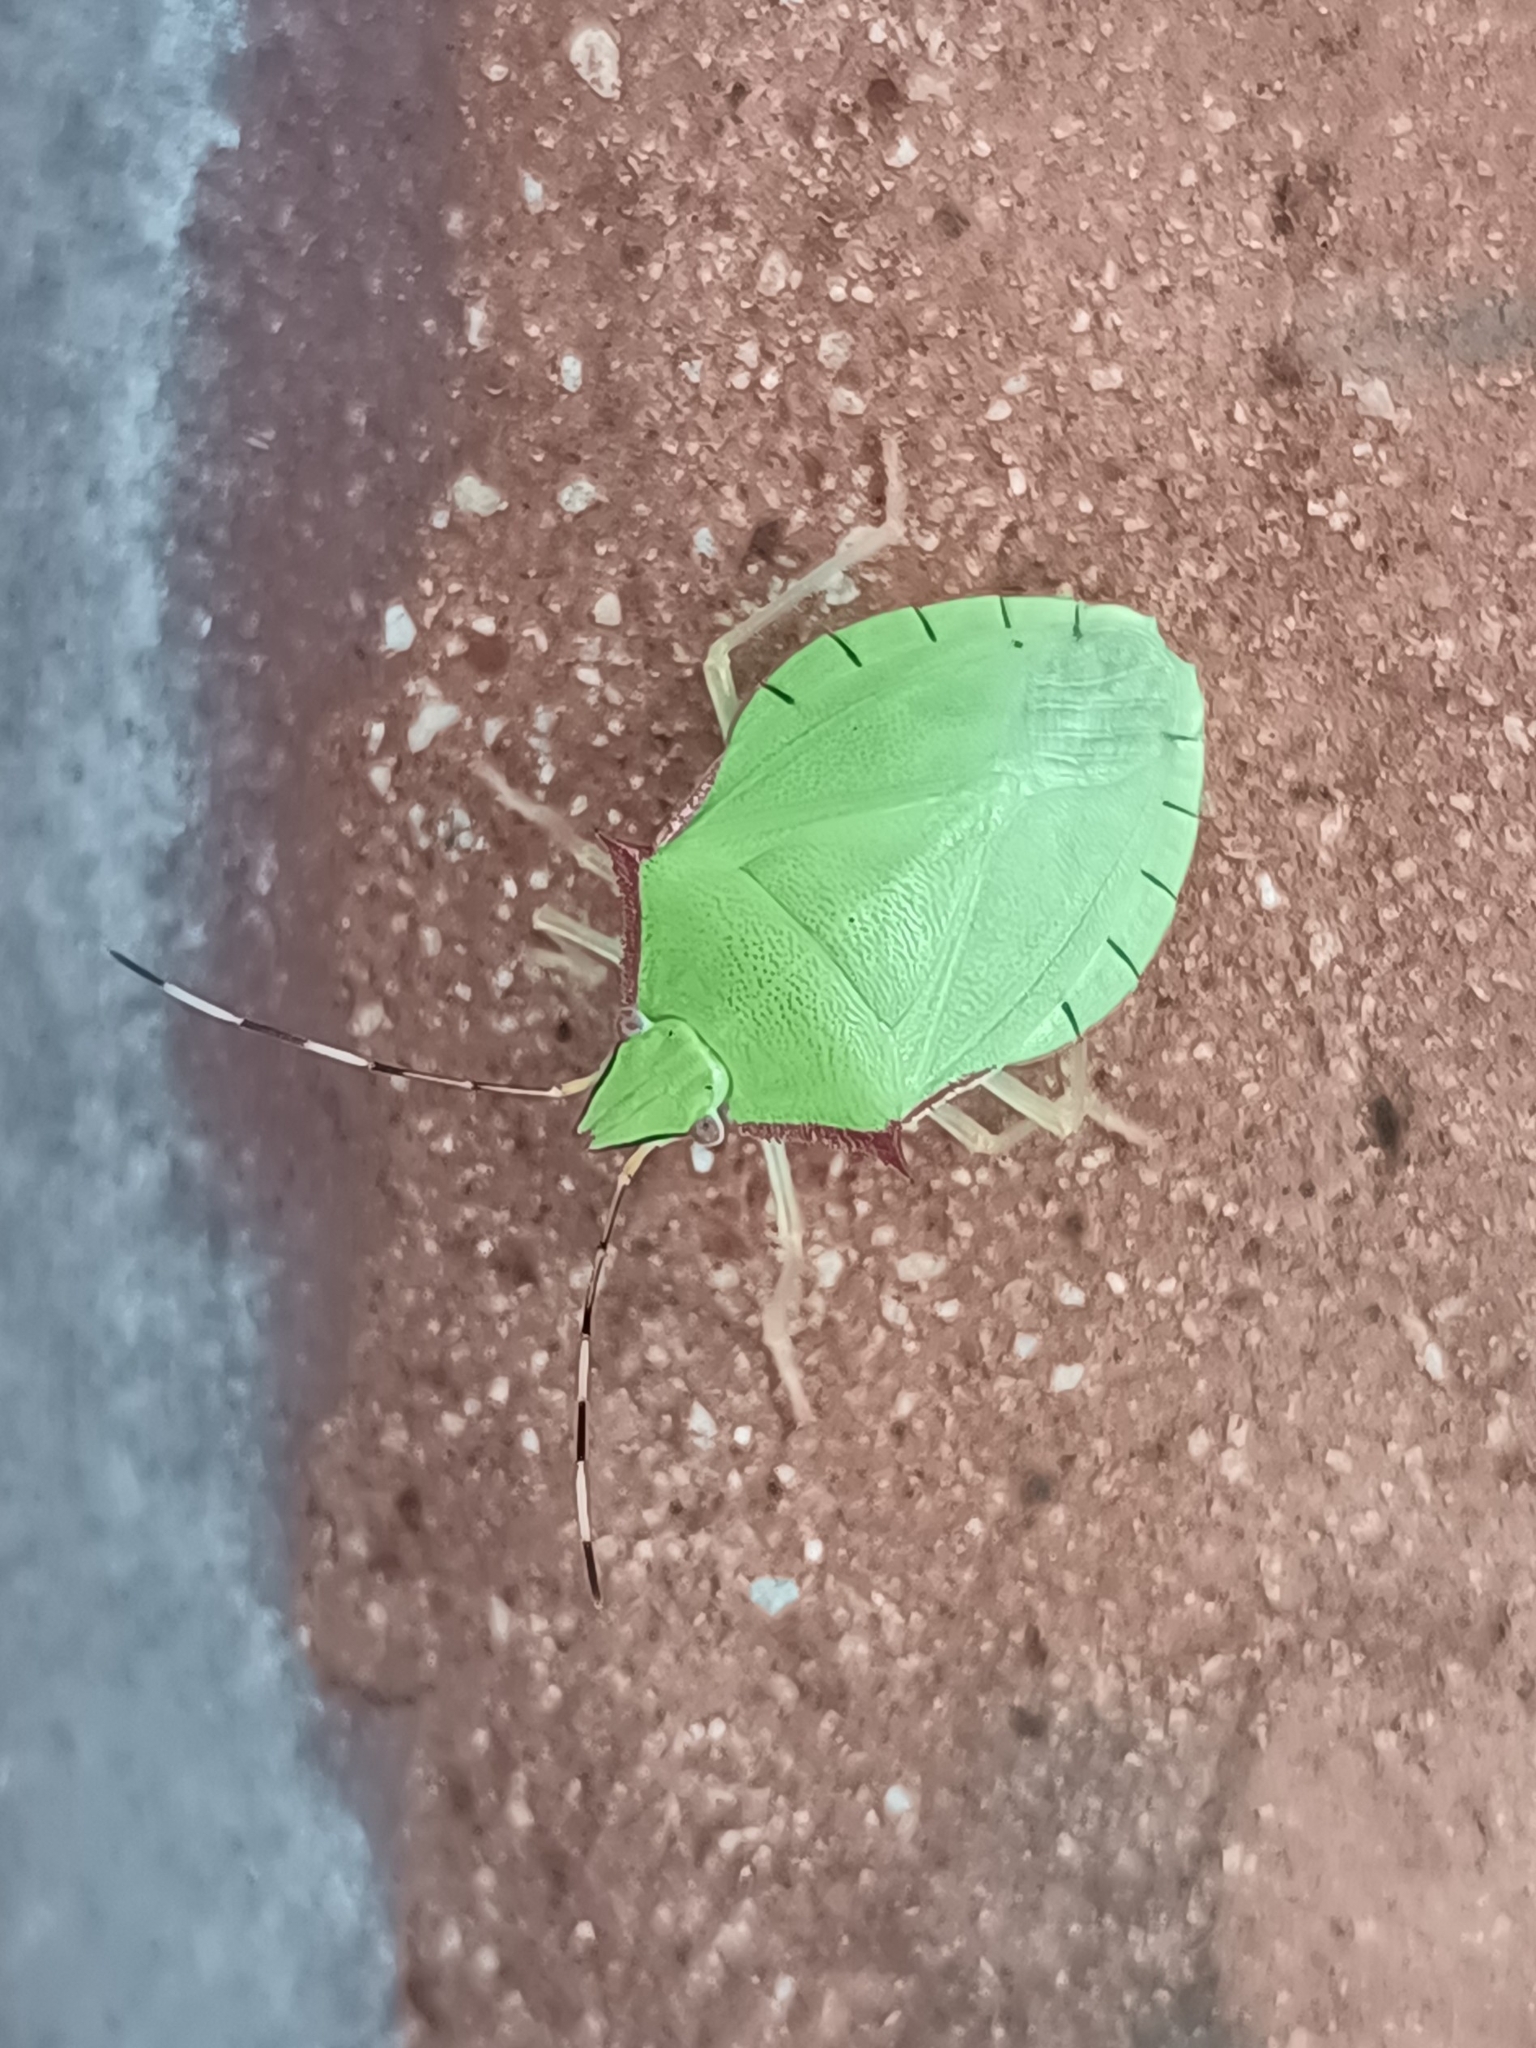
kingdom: Animalia
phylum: Arthropoda
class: Insecta
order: Hemiptera
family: Pentatomidae
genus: Chlorocoris
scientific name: Chlorocoris distinctus
